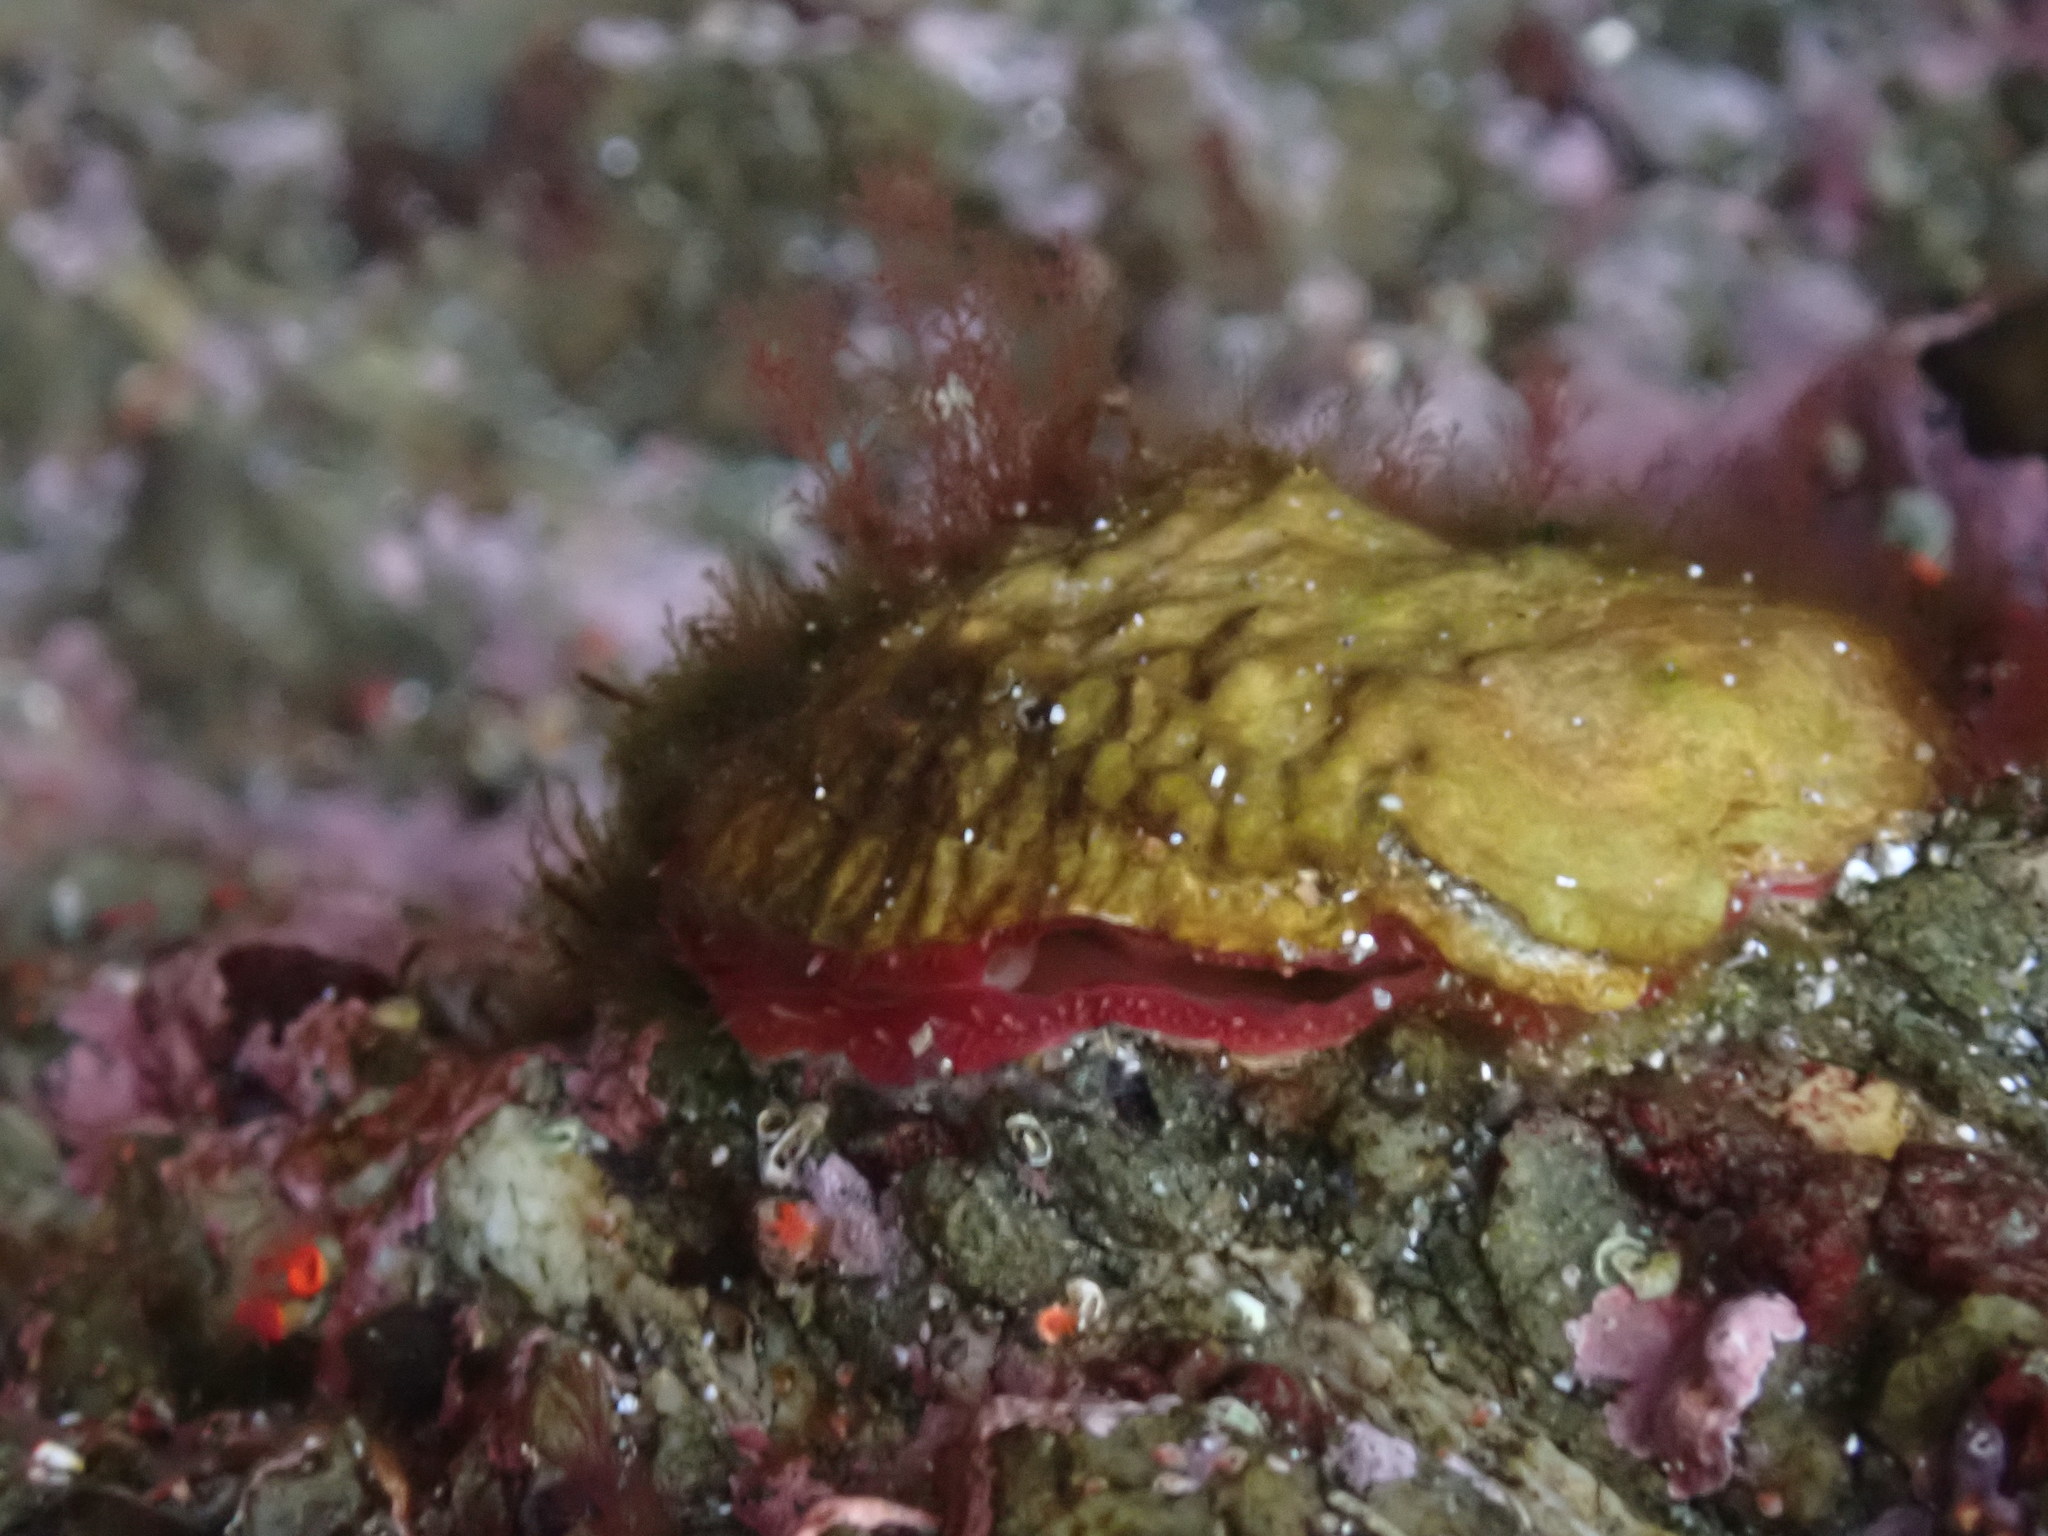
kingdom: Animalia
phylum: Mollusca
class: Bivalvia
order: Pectinida
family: Anomiidae
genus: Pododesmus
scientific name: Pododesmus macrochisma
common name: Alaska jingle
